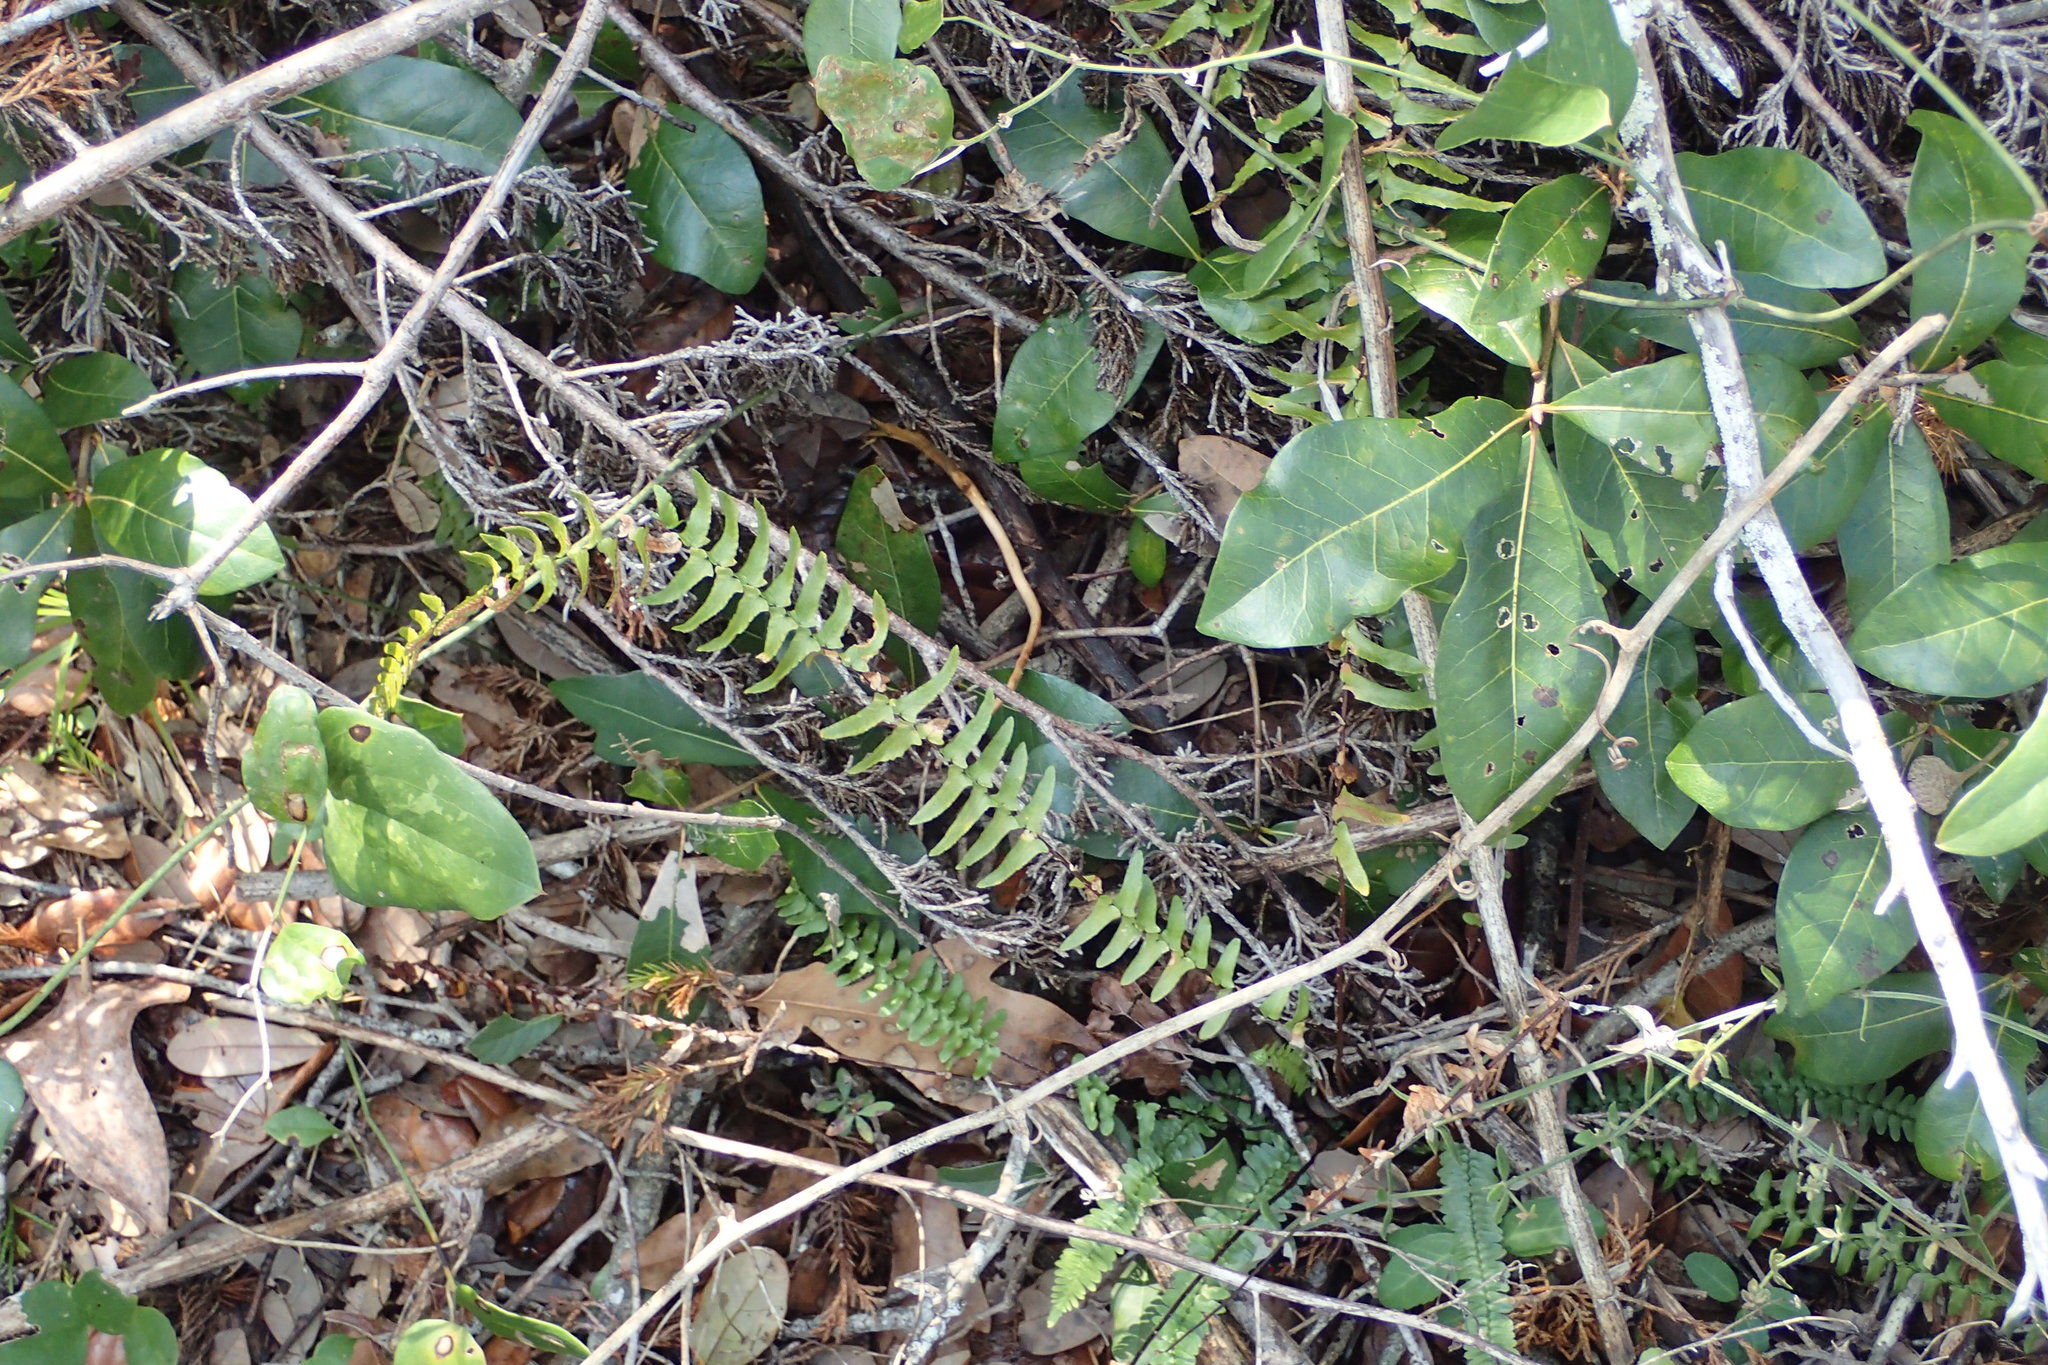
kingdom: Plantae
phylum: Tracheophyta
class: Polypodiopsida
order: Polypodiales
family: Aspleniaceae
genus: Asplenium
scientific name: Asplenium platyneuron
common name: Ebony spleenwort
